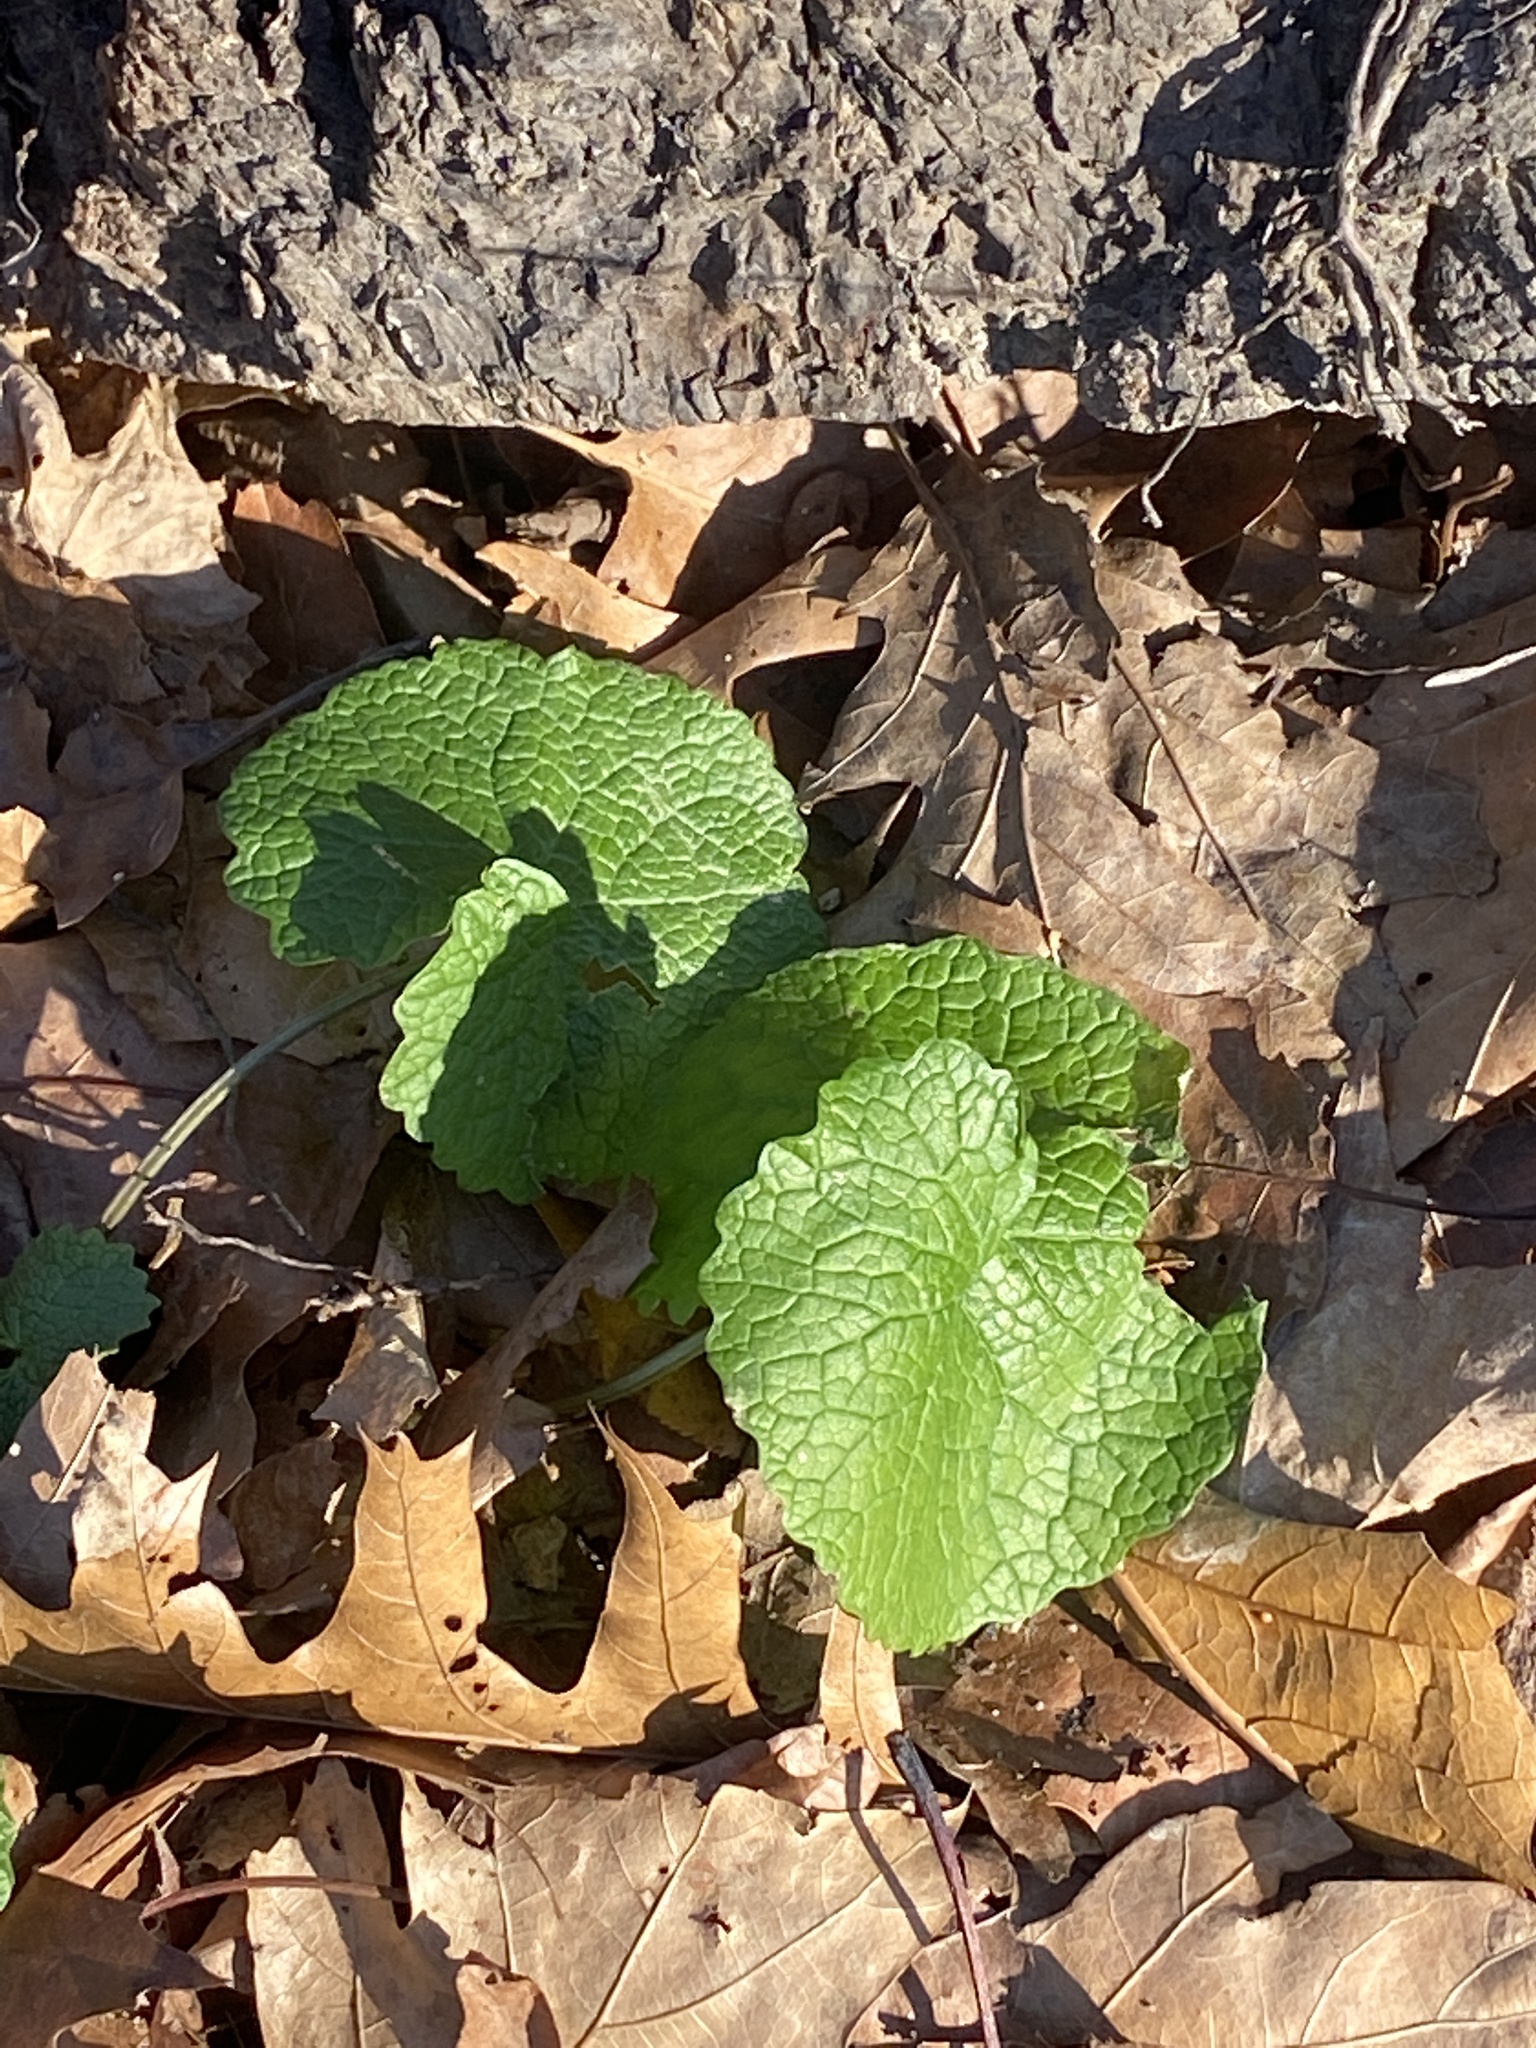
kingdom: Plantae
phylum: Tracheophyta
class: Magnoliopsida
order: Brassicales
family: Brassicaceae
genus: Alliaria
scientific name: Alliaria petiolata
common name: Garlic mustard
